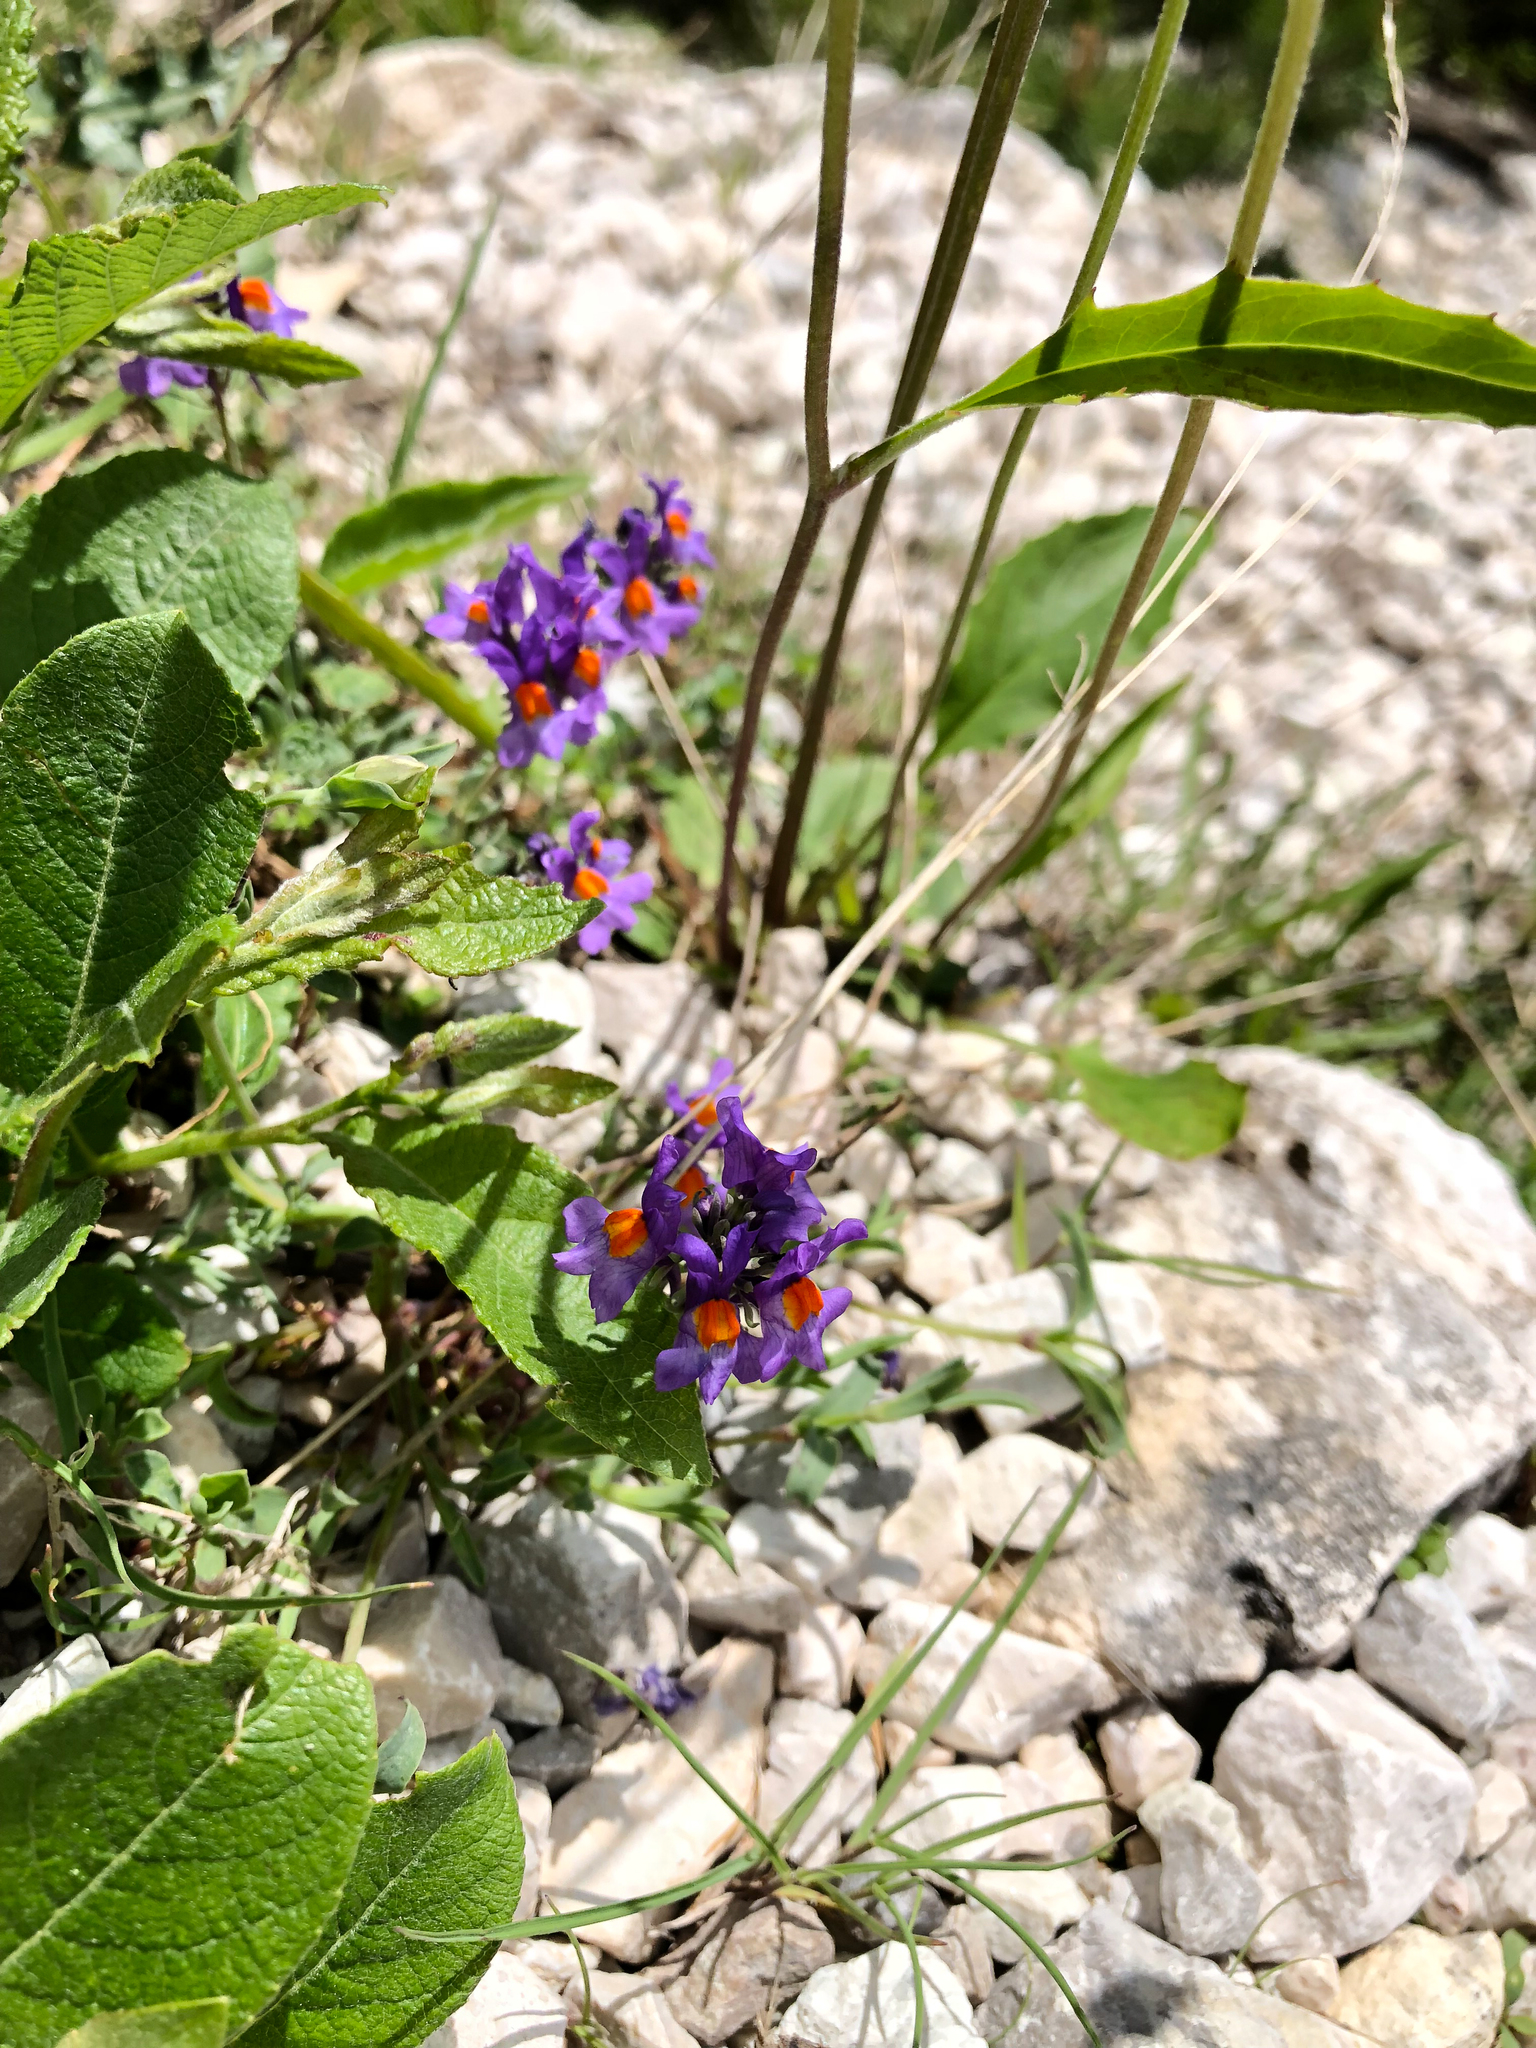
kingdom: Plantae
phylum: Tracheophyta
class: Magnoliopsida
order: Lamiales
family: Plantaginaceae
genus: Linaria
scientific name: Linaria alpina
